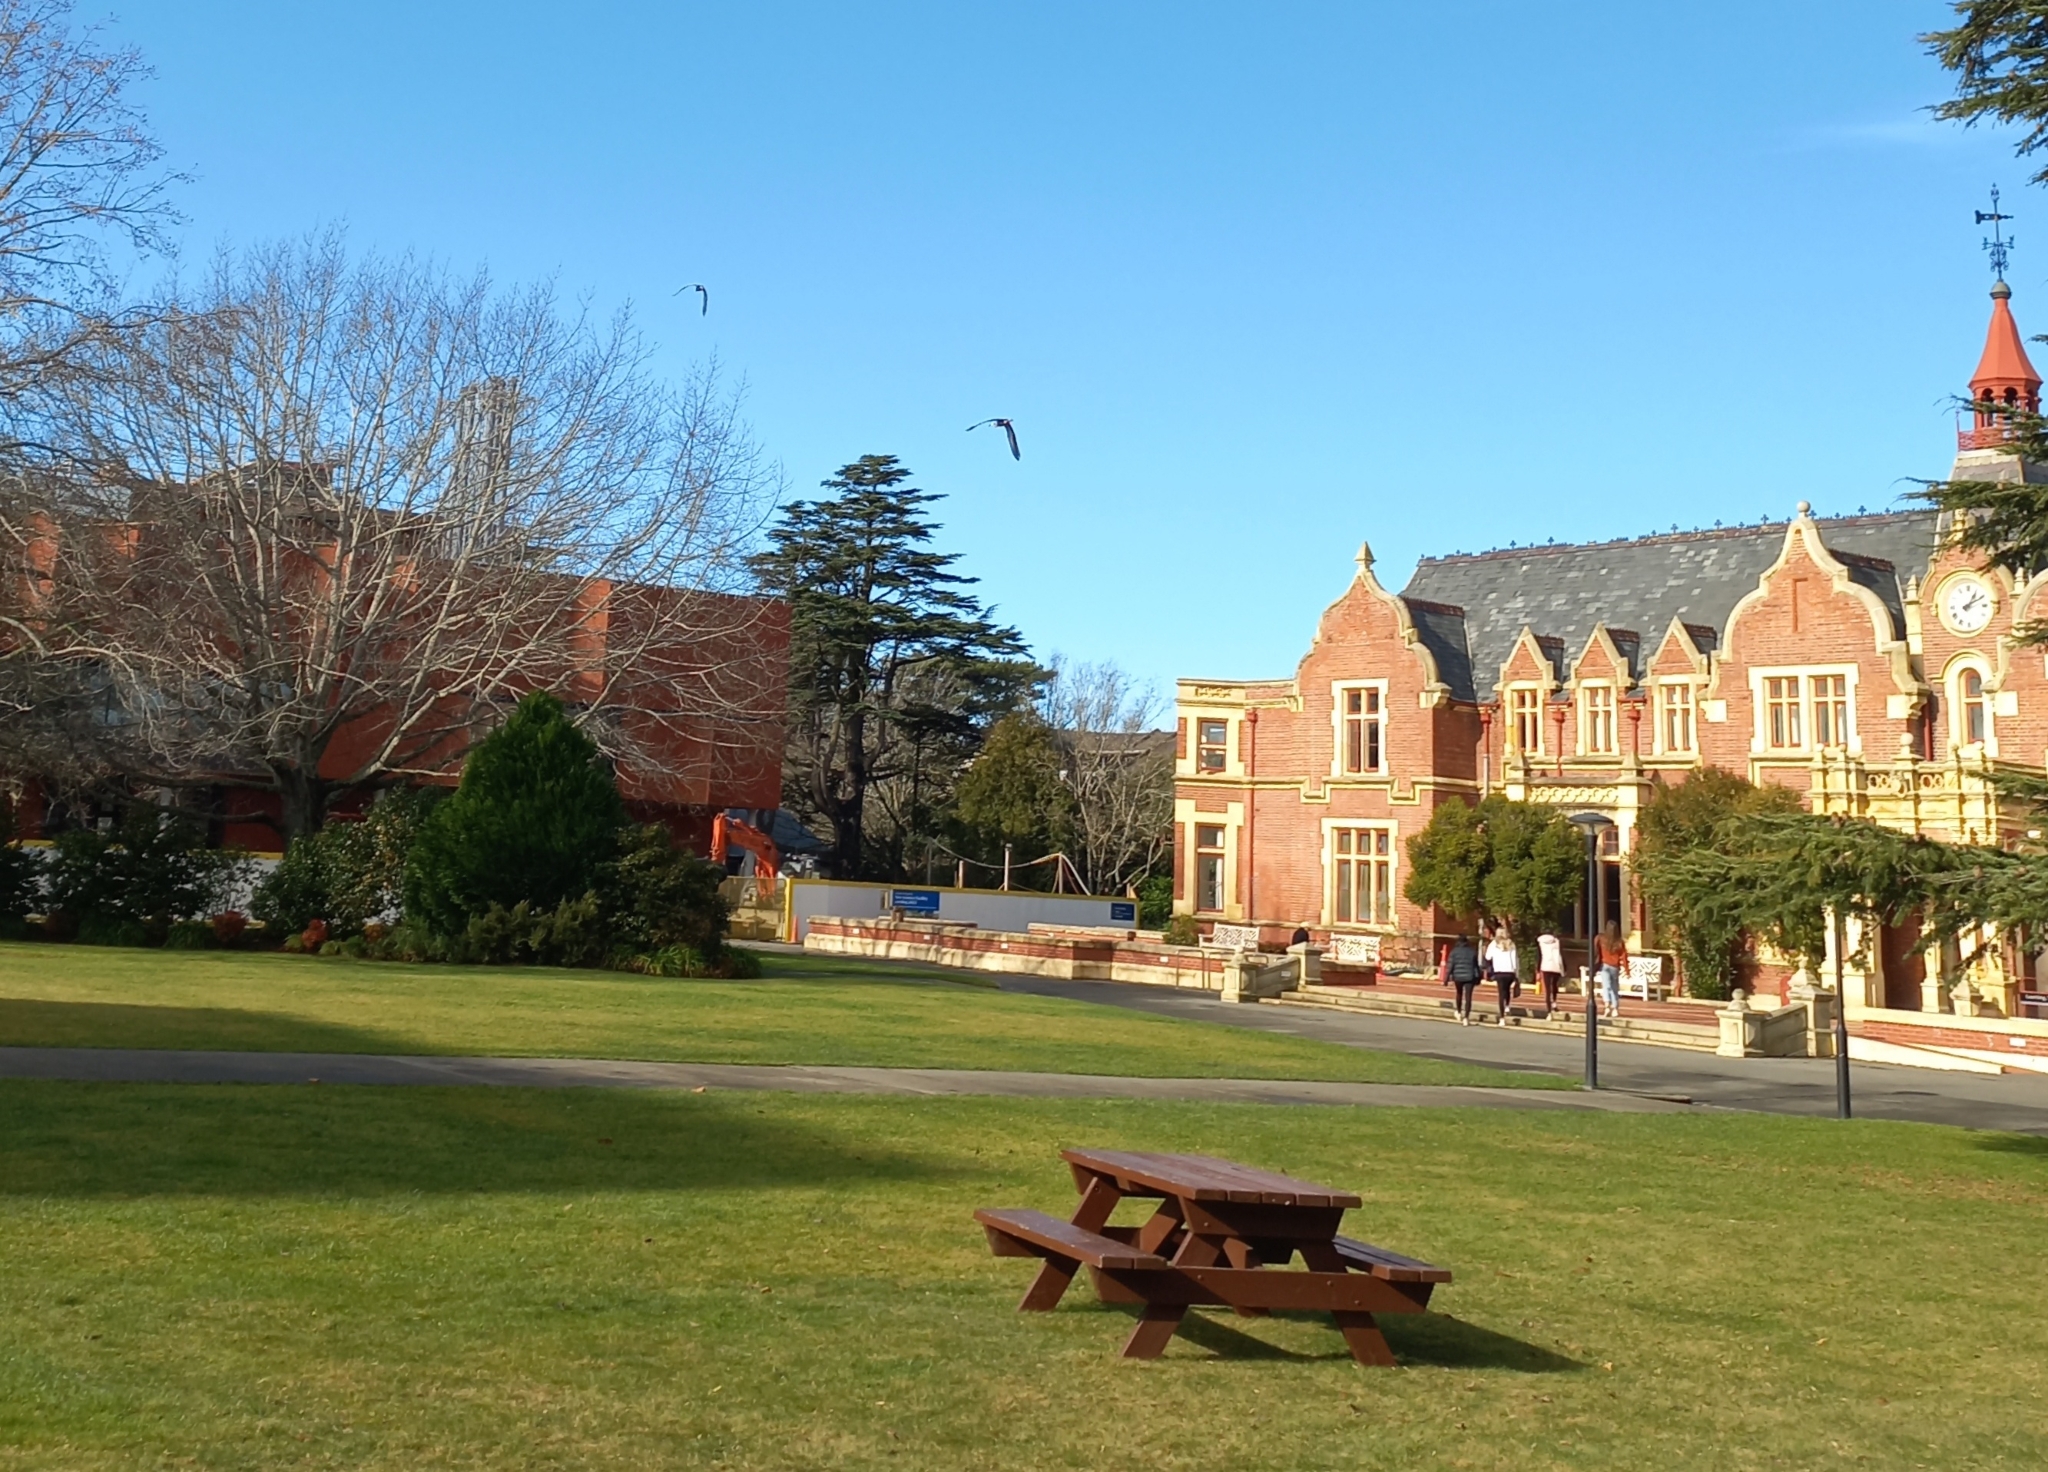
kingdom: Animalia
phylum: Chordata
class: Aves
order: Pelecaniformes
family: Ardeidae
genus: Egretta
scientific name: Egretta novaehollandiae
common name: White-faced heron
